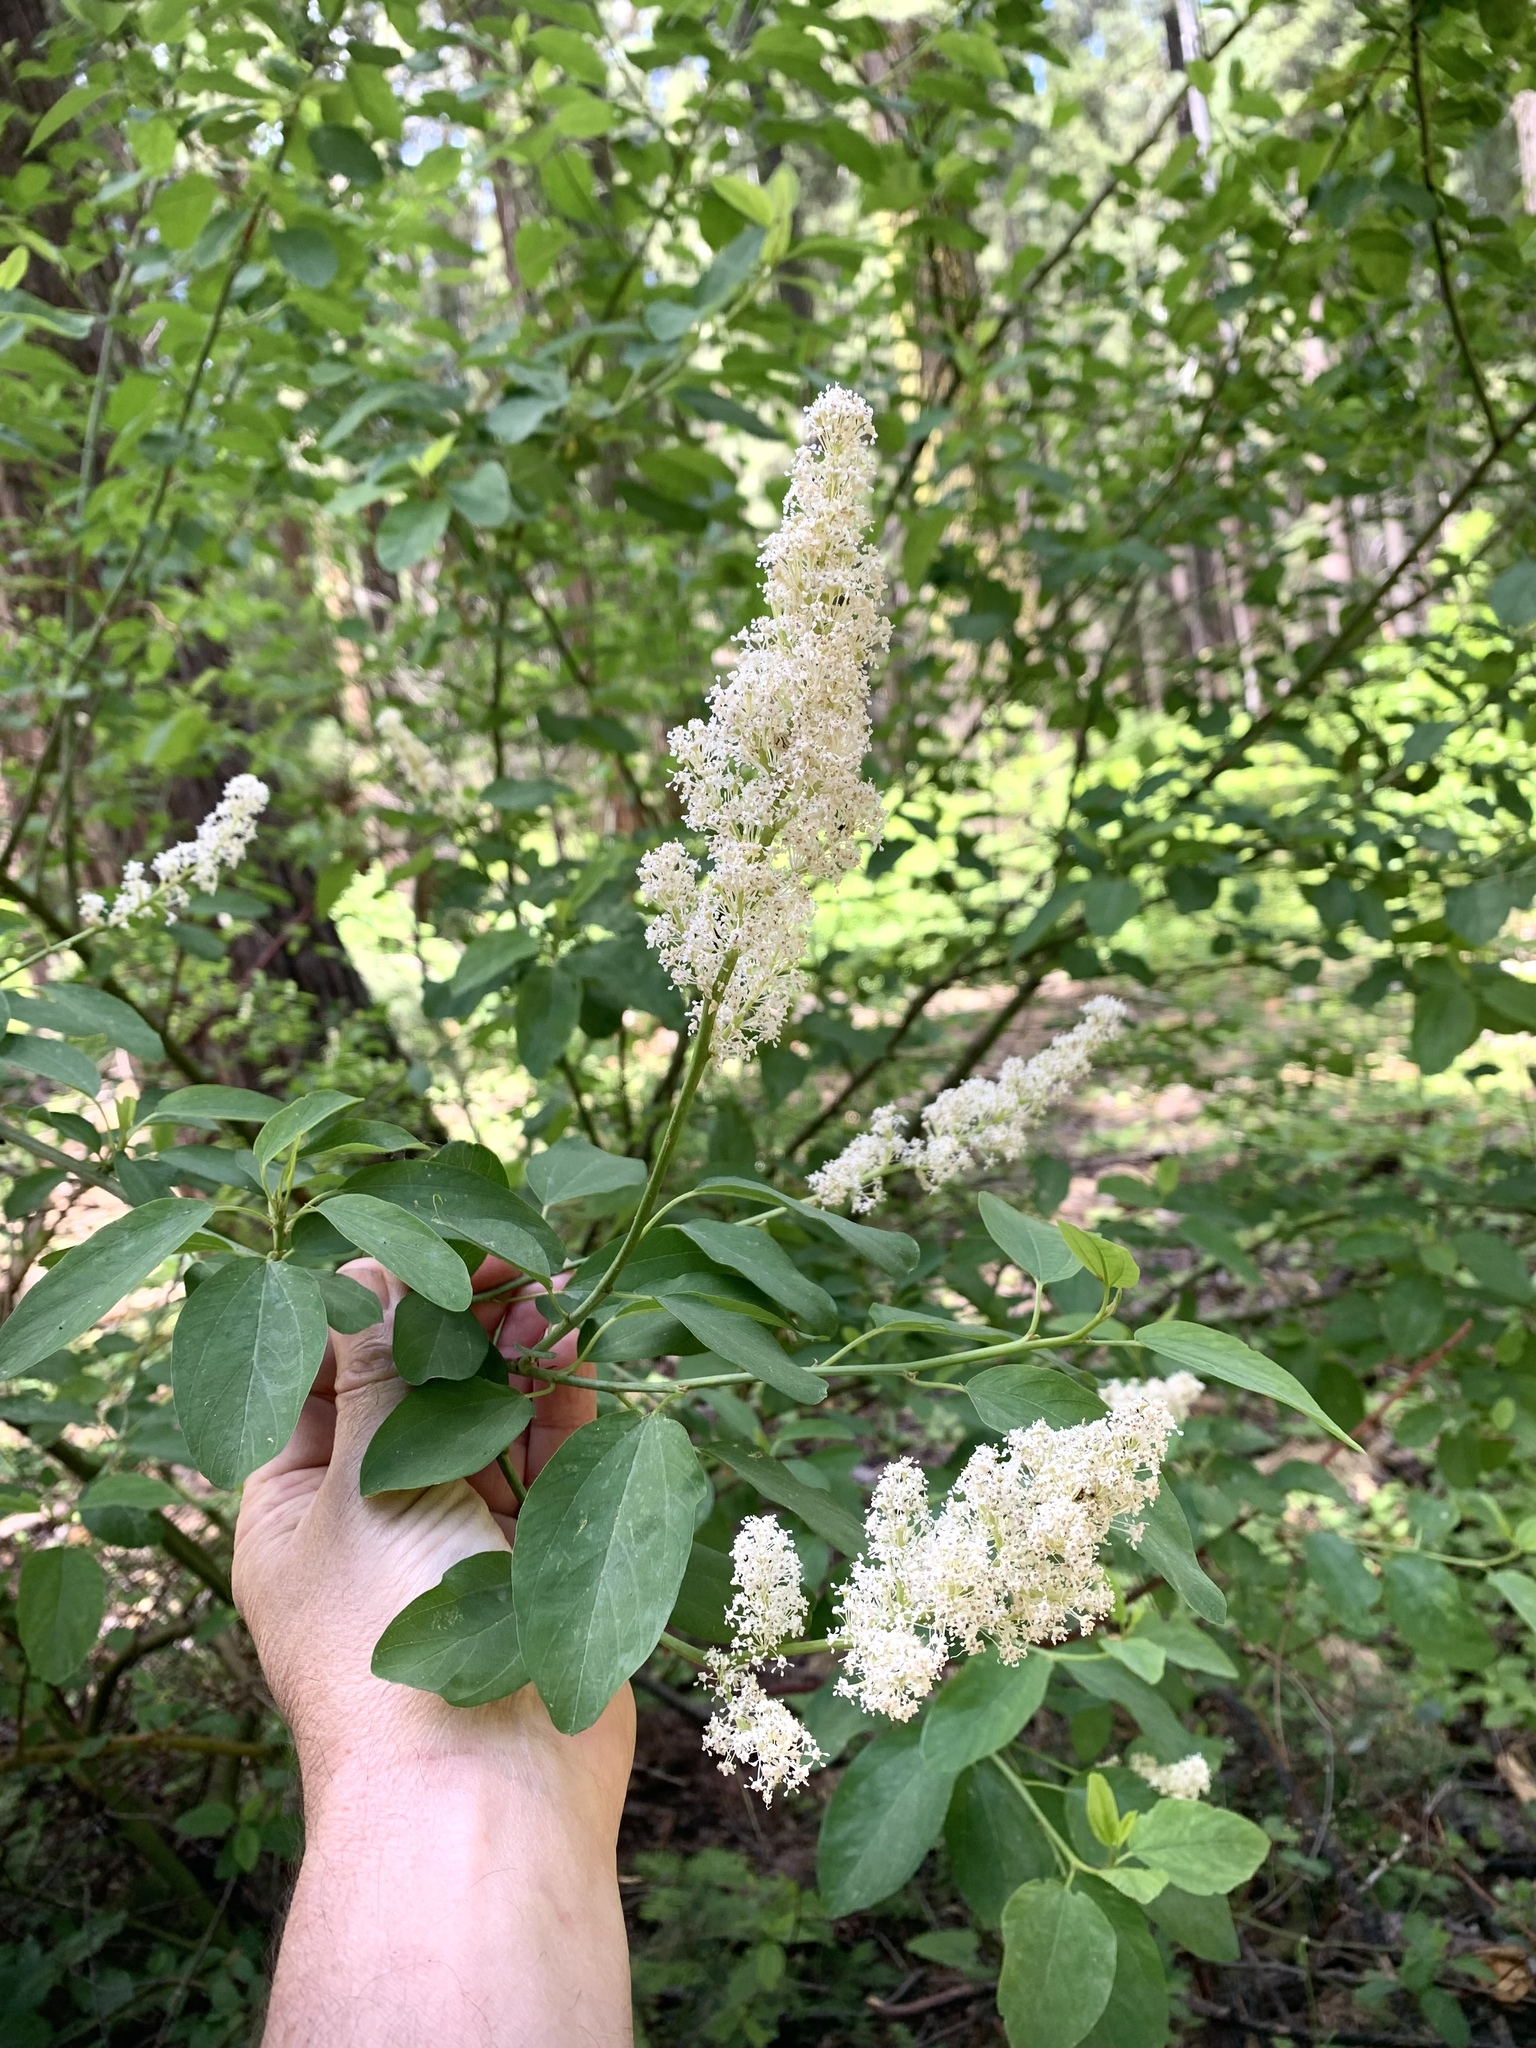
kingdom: Plantae
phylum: Tracheophyta
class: Magnoliopsida
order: Rosales
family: Rhamnaceae
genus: Ceanothus
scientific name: Ceanothus integerrimus
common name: Deerbrush ceanothus
